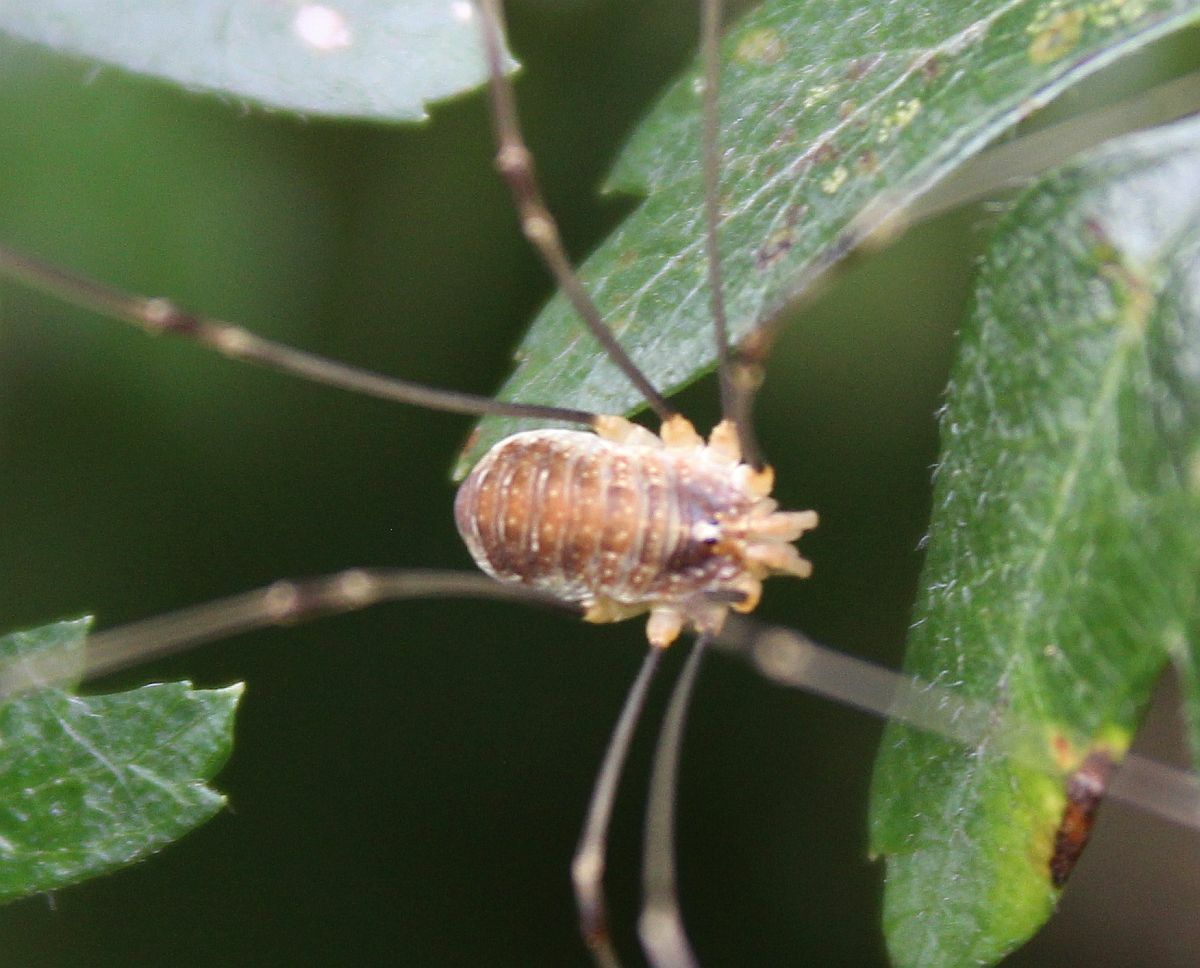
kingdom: Animalia
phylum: Arthropoda
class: Arachnida
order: Opiliones
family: Phalangiidae
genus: Opilio
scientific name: Opilio canestrinii
